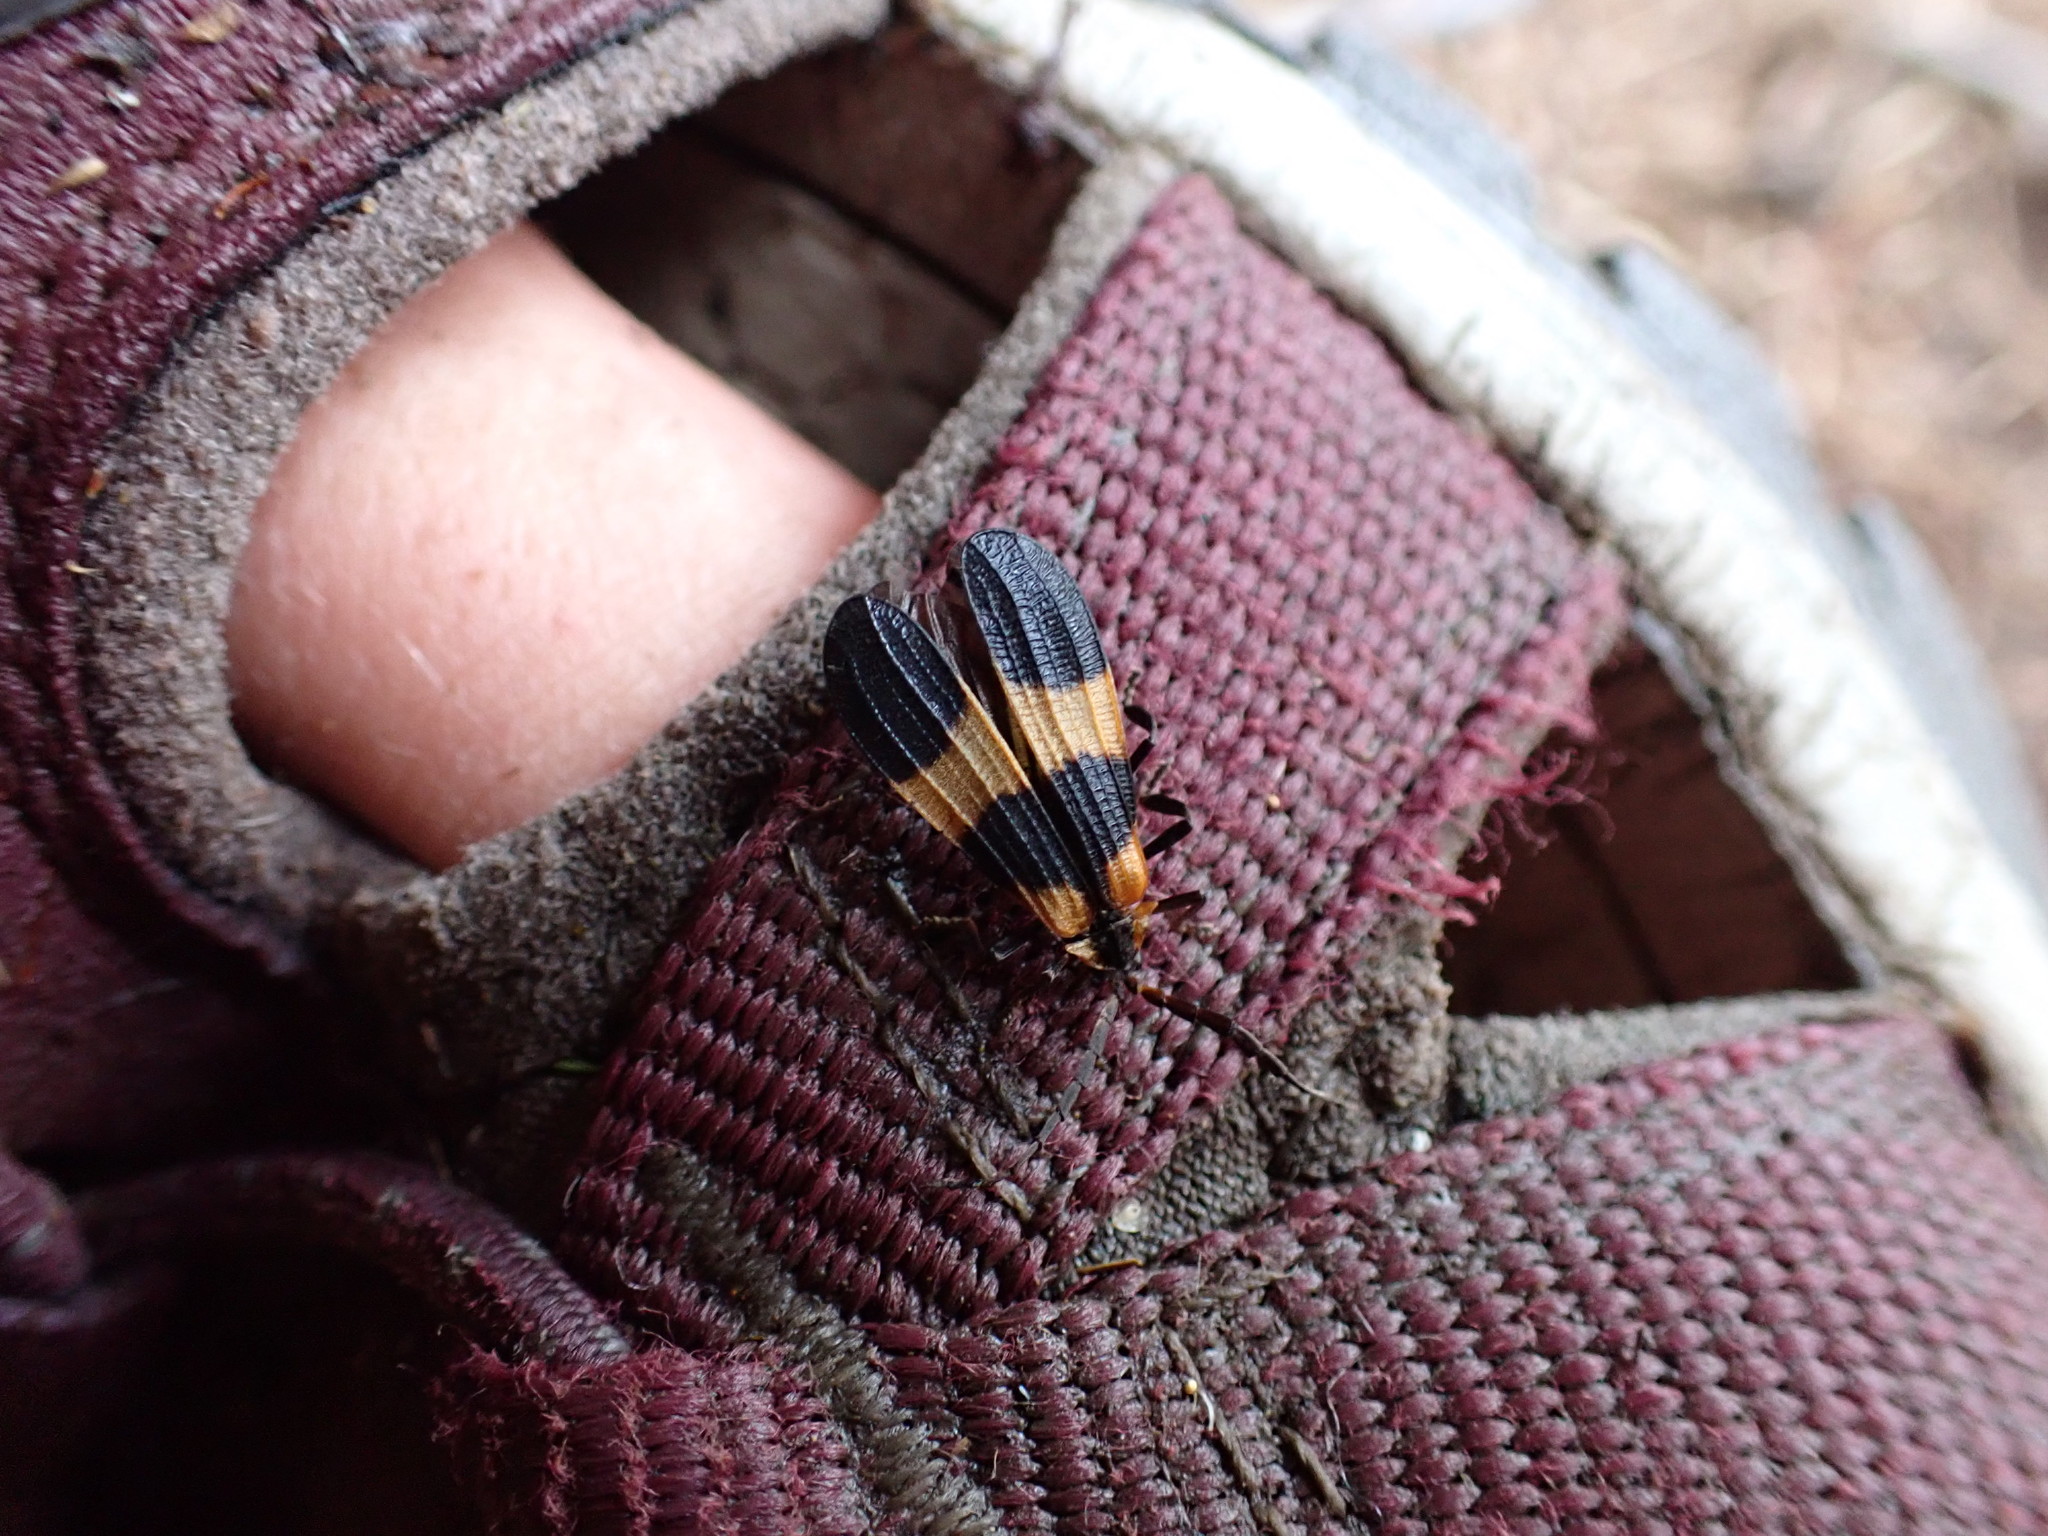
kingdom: Animalia
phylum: Arthropoda
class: Insecta
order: Coleoptera
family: Lycidae
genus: Calopteron
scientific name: Calopteron reticulatum
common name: Banded net-winged beetle
